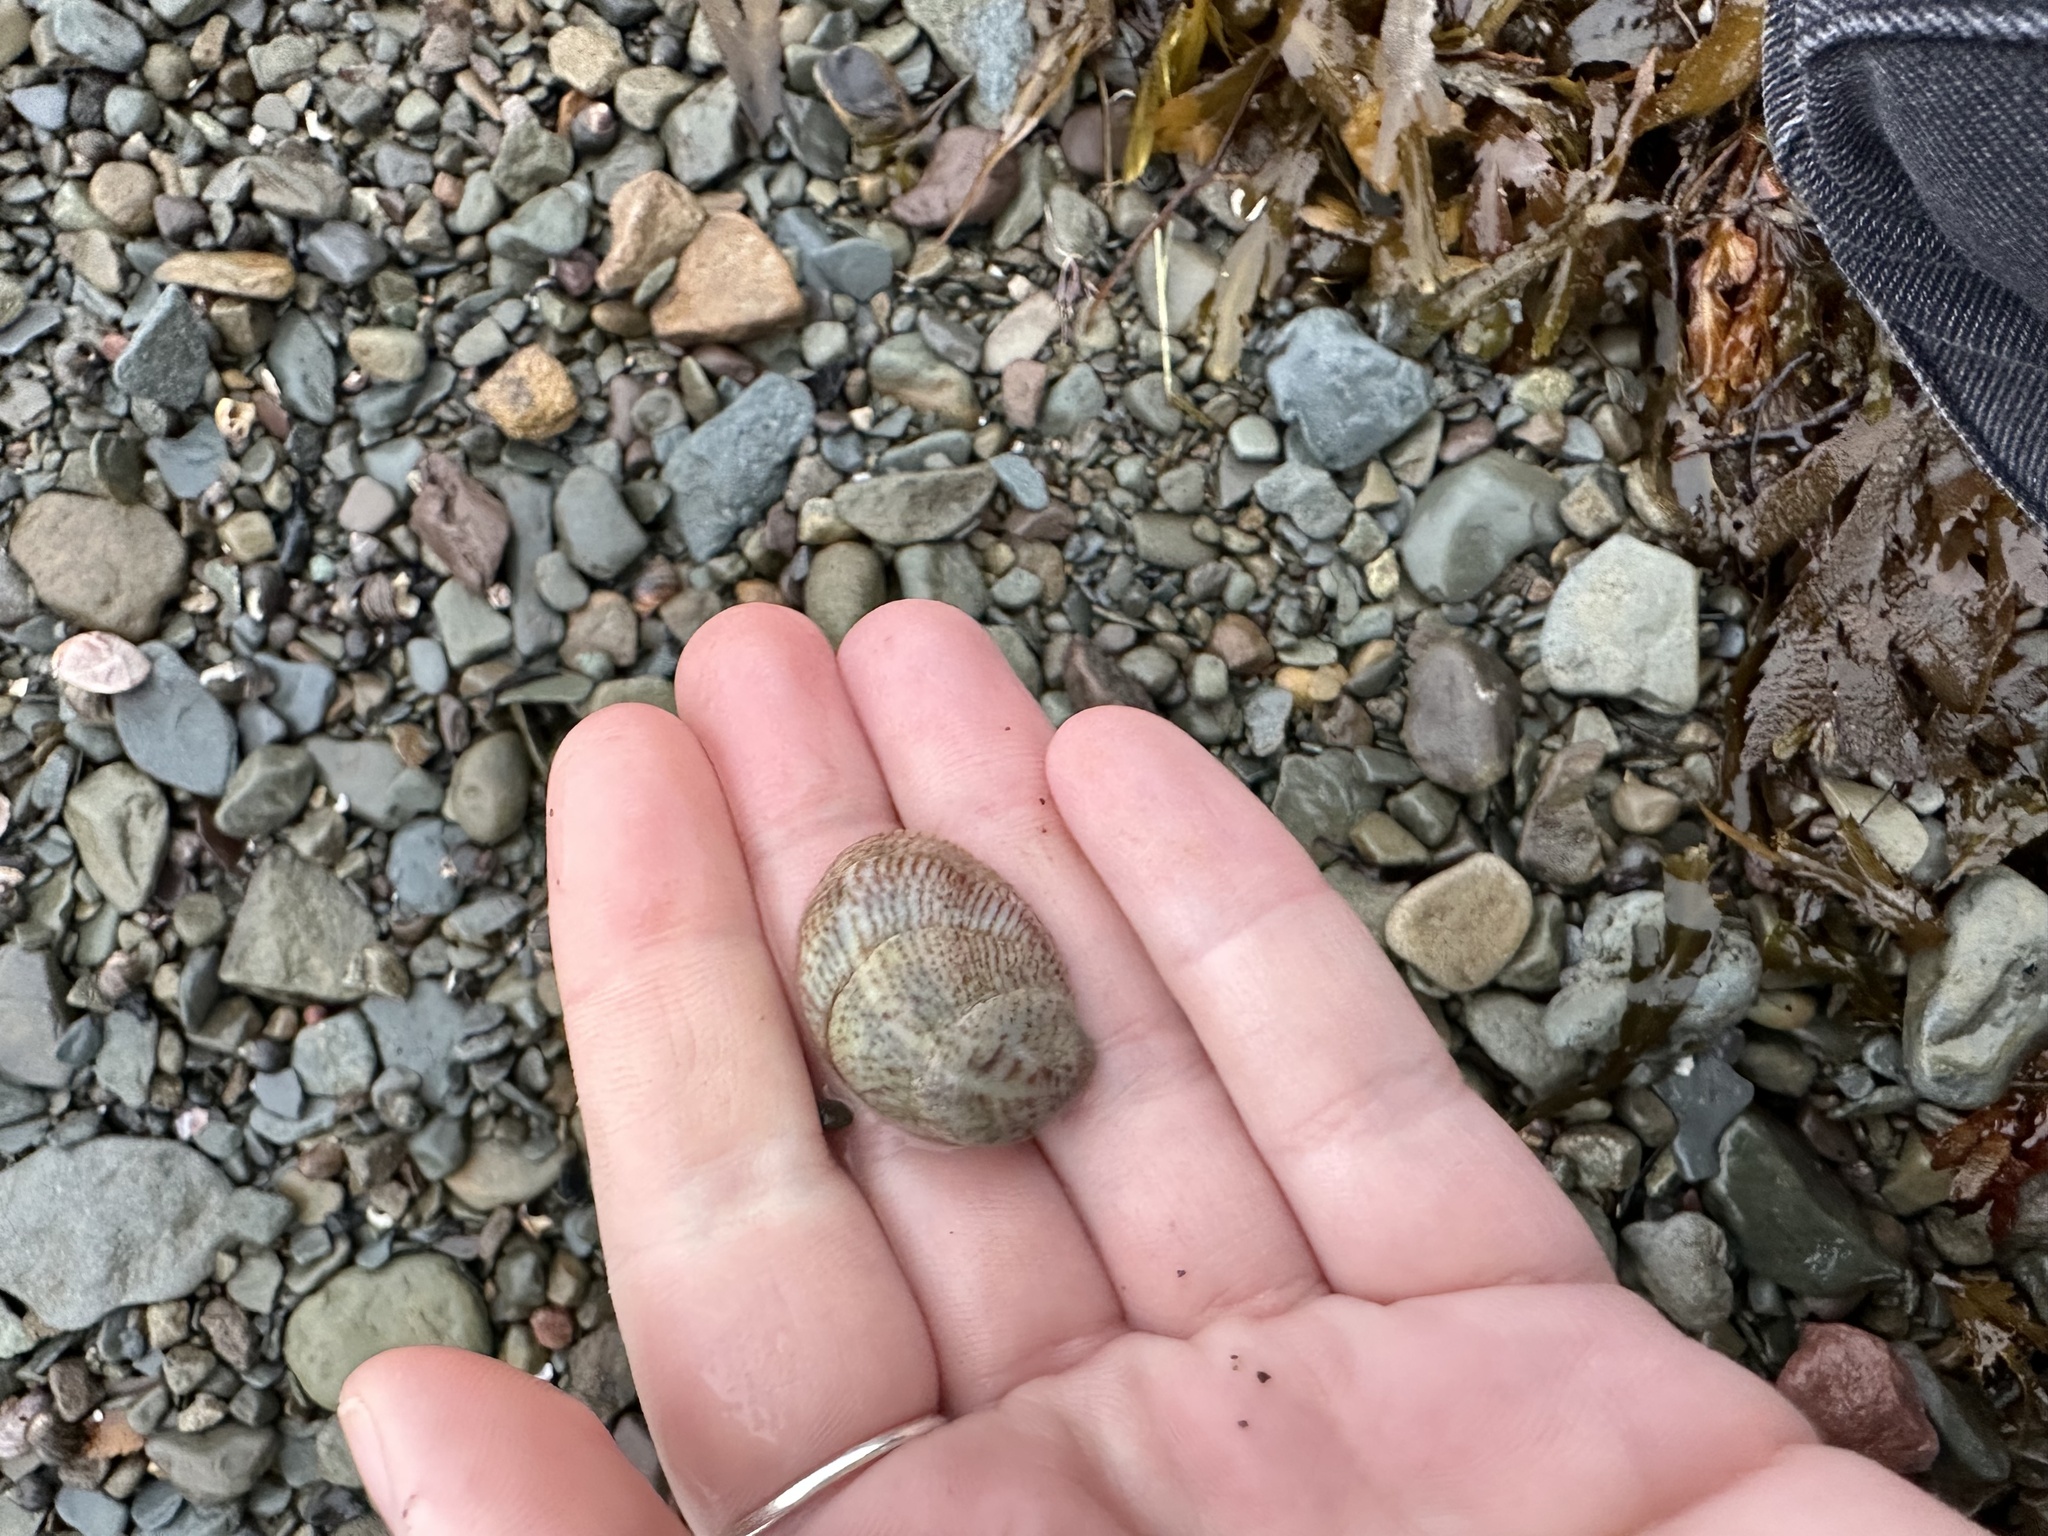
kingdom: Animalia
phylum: Mollusca
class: Gastropoda
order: Littorinimorpha
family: Calyptraeidae
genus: Crepidula
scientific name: Crepidula fornicata
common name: Slipper limpet
